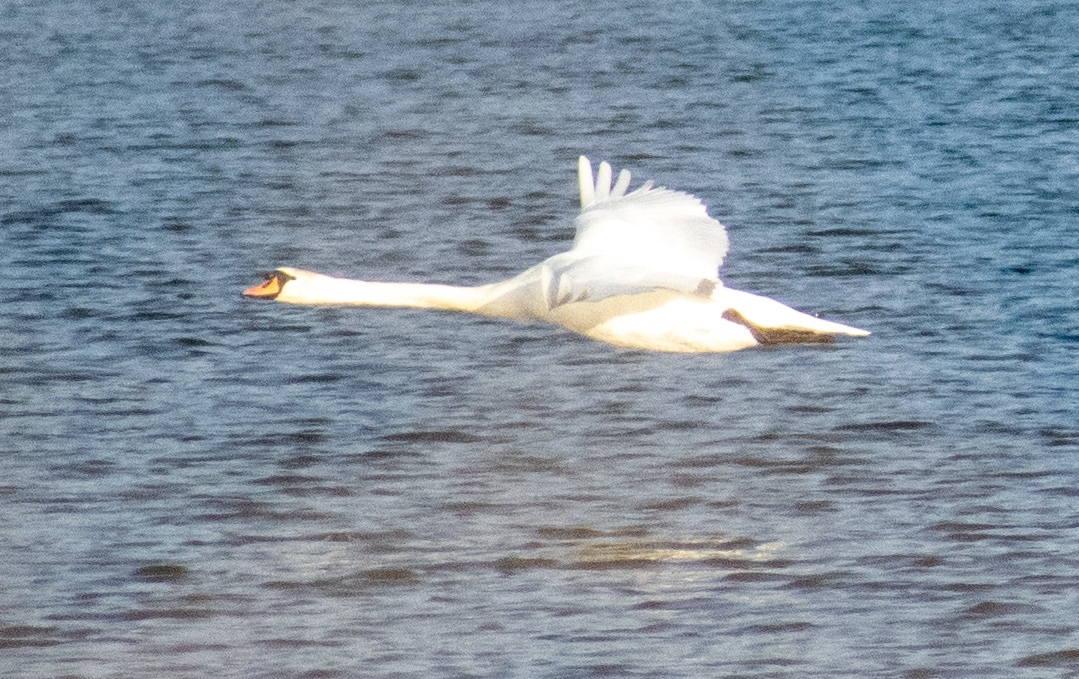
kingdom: Animalia
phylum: Chordata
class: Aves
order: Anseriformes
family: Anatidae
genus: Cygnus
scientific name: Cygnus olor
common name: Mute swan
